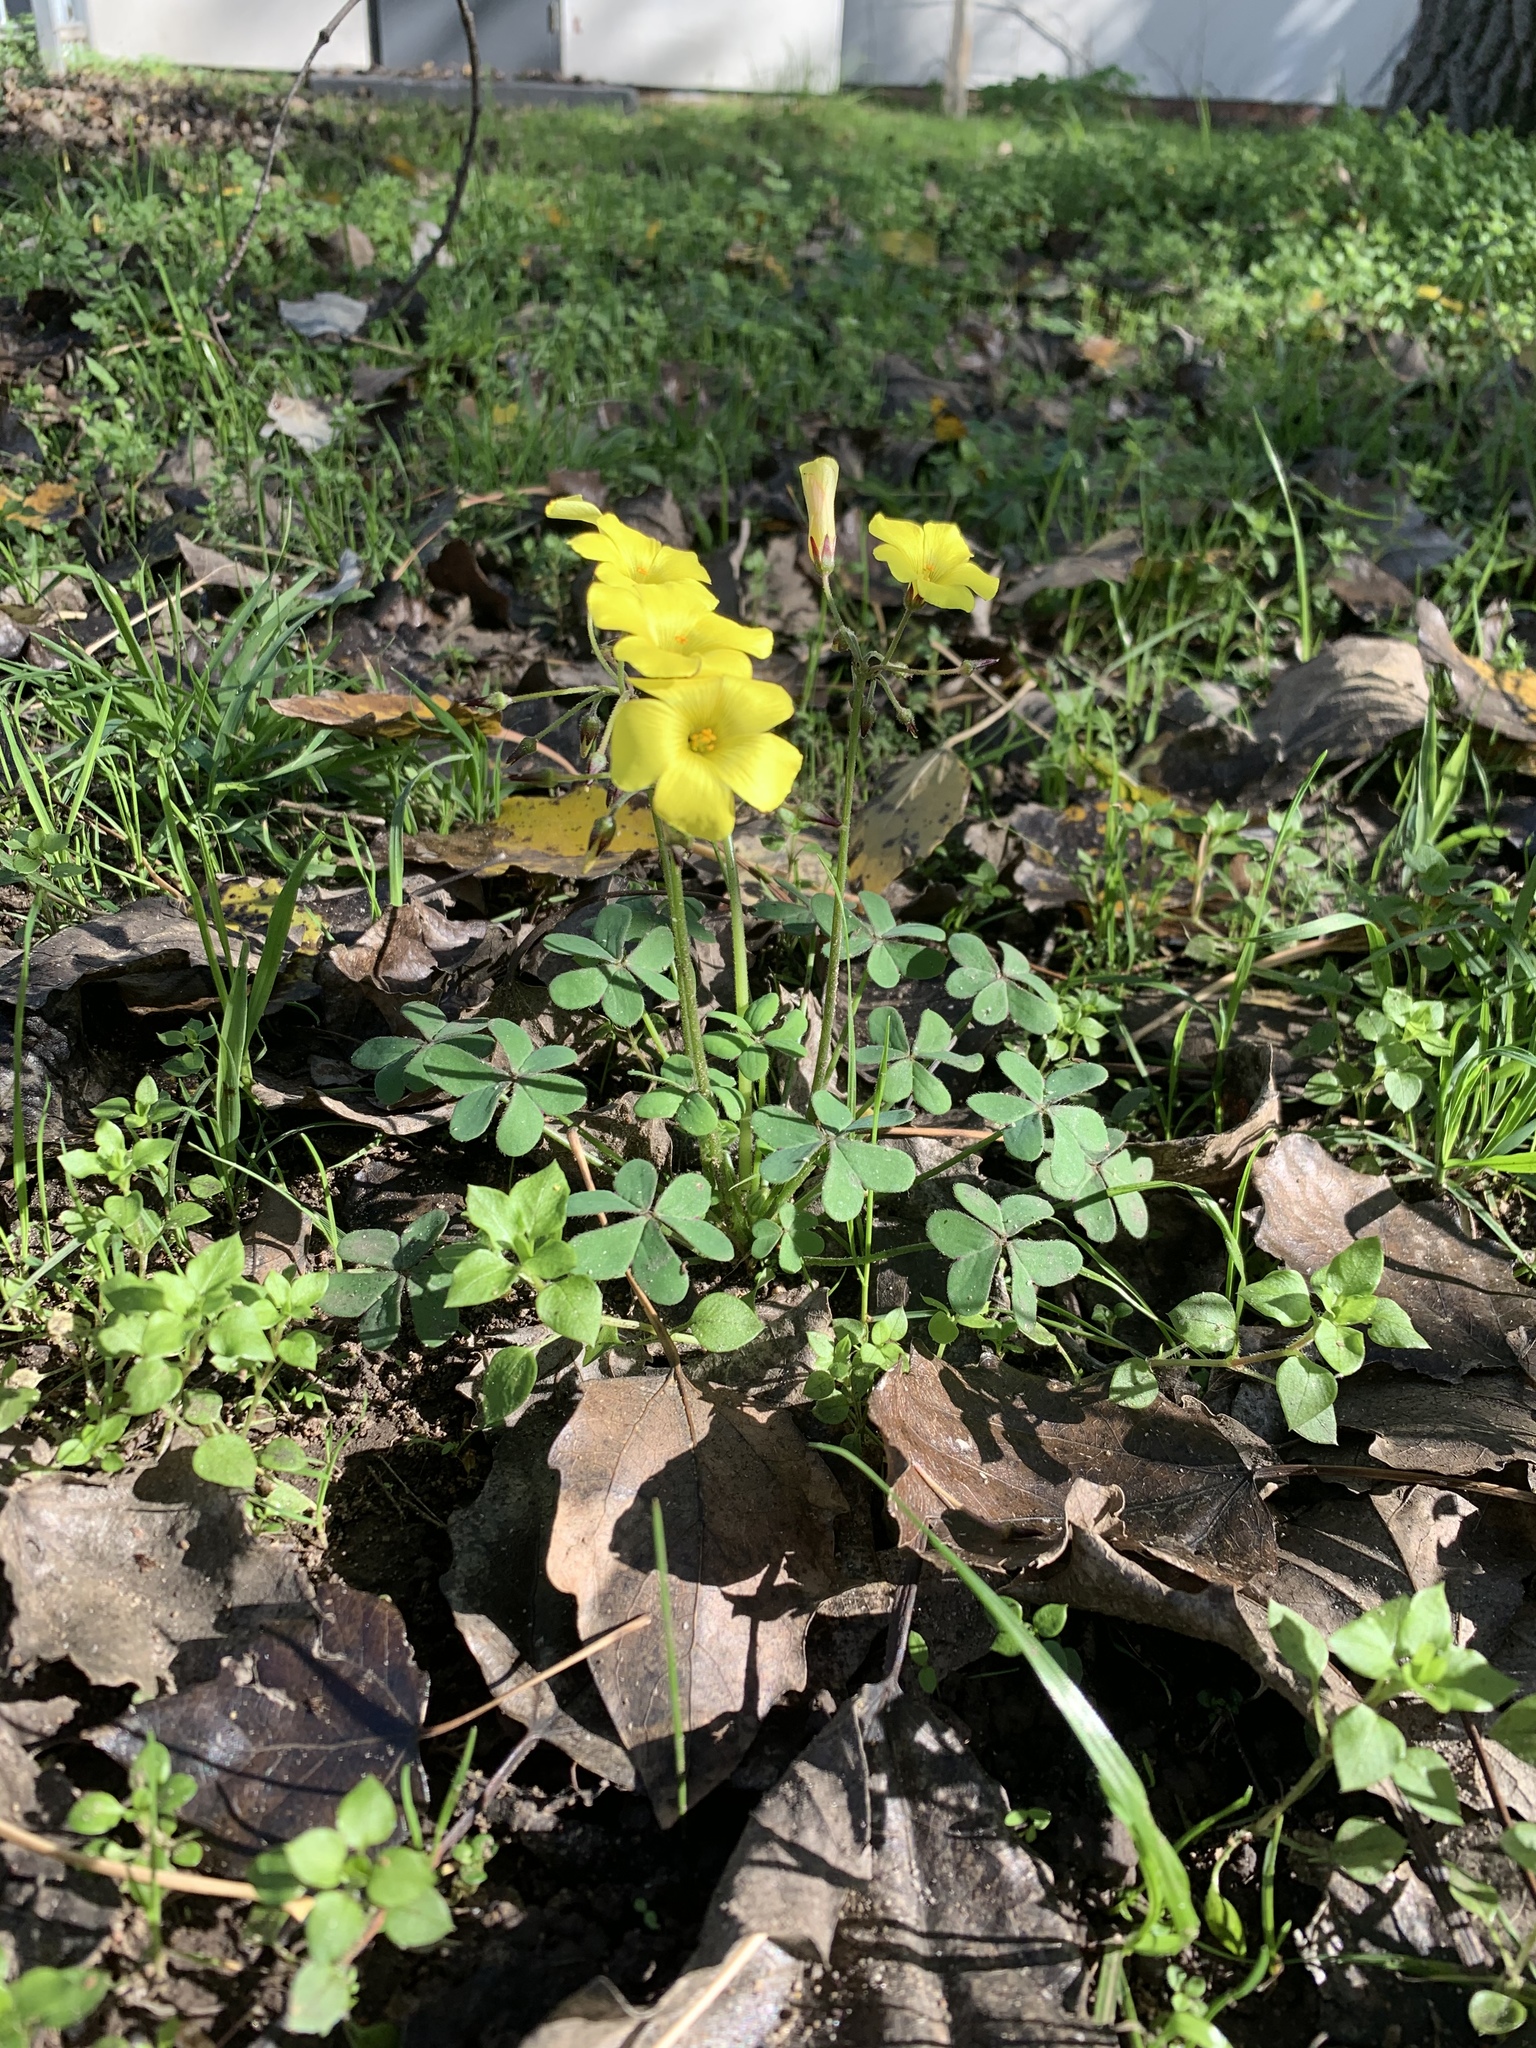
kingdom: Plantae
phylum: Tracheophyta
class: Magnoliopsida
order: Oxalidales
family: Oxalidaceae
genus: Oxalis
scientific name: Oxalis pes-caprae
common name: Bermuda-buttercup
